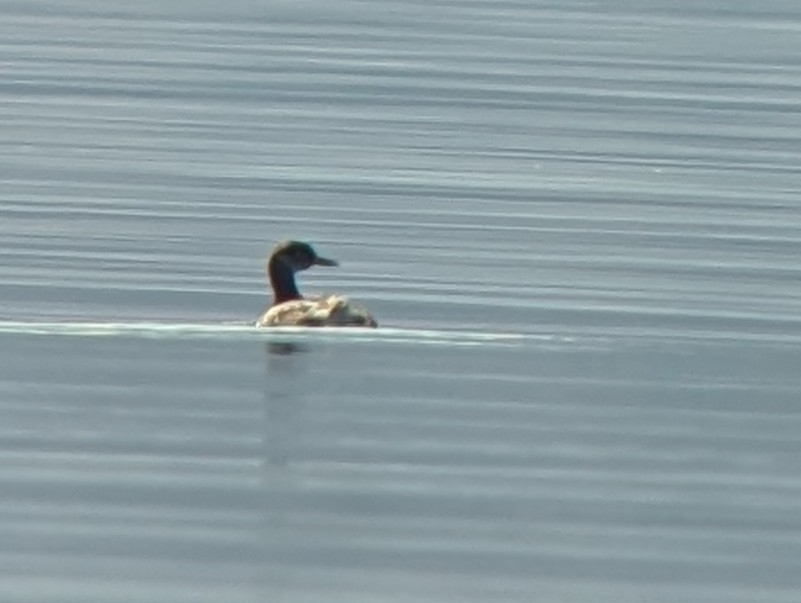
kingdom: Animalia
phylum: Chordata
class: Aves
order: Podicipediformes
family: Podicipedidae
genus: Podiceps
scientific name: Podiceps grisegena
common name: Red-necked grebe
